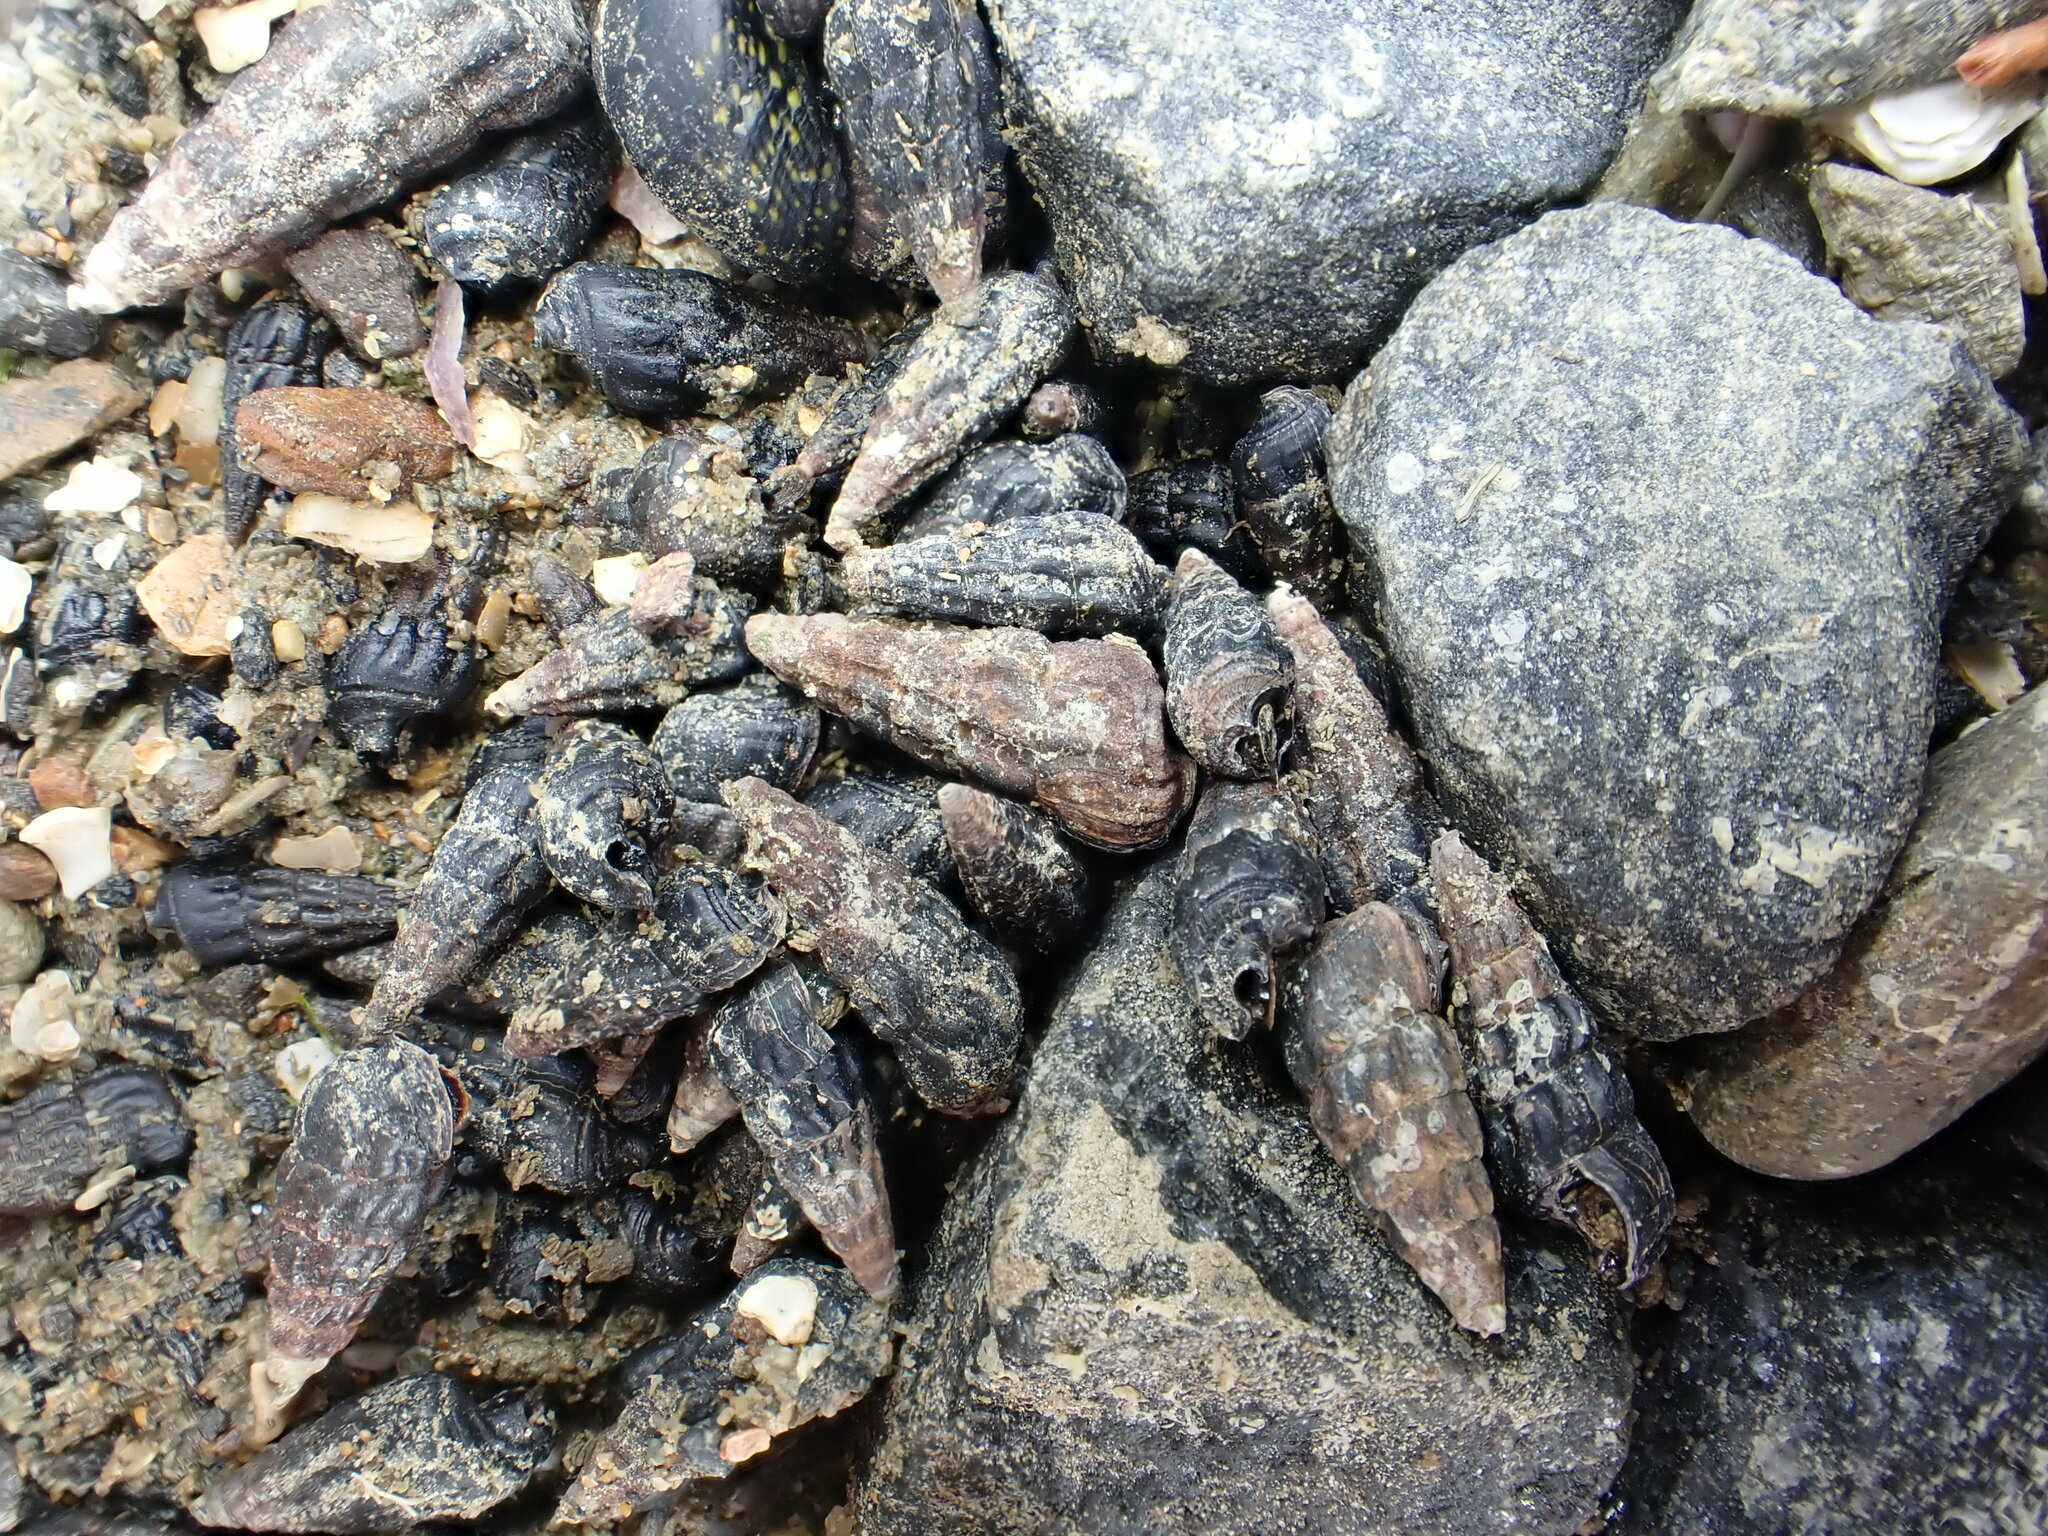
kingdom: Animalia
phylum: Mollusca
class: Gastropoda
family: Batillariidae
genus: Zeacumantus
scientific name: Zeacumantus subcarinatus
